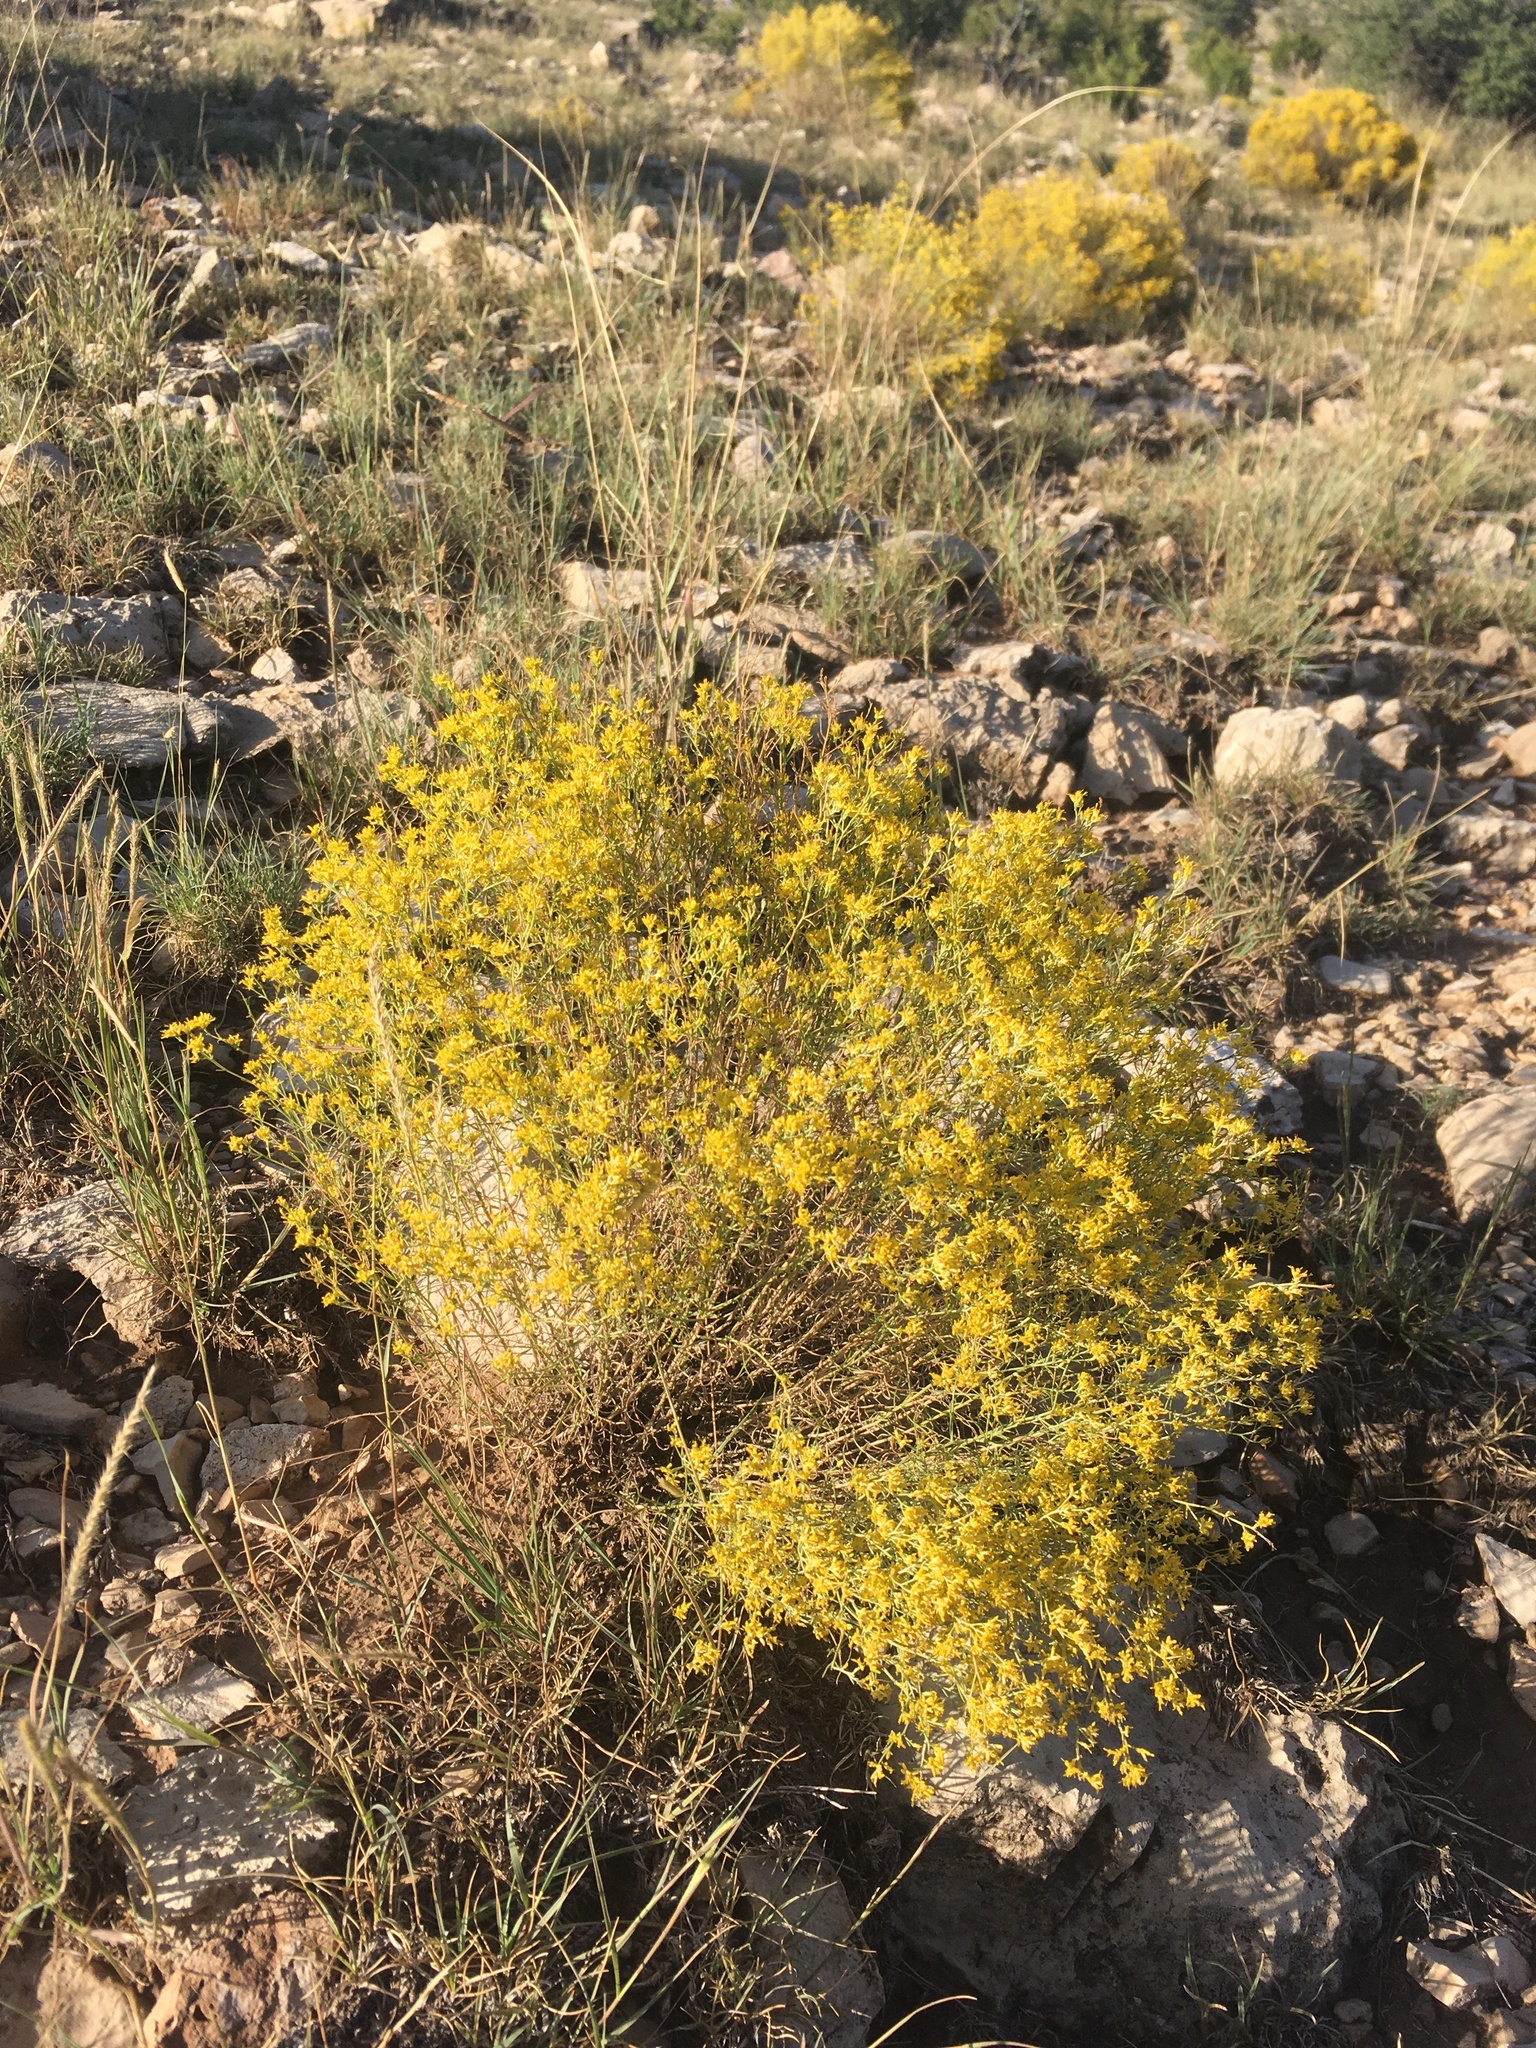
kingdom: Plantae
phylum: Tracheophyta
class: Magnoliopsida
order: Asterales
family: Asteraceae
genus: Gutierrezia
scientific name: Gutierrezia microcephala
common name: Thread snakeweed
